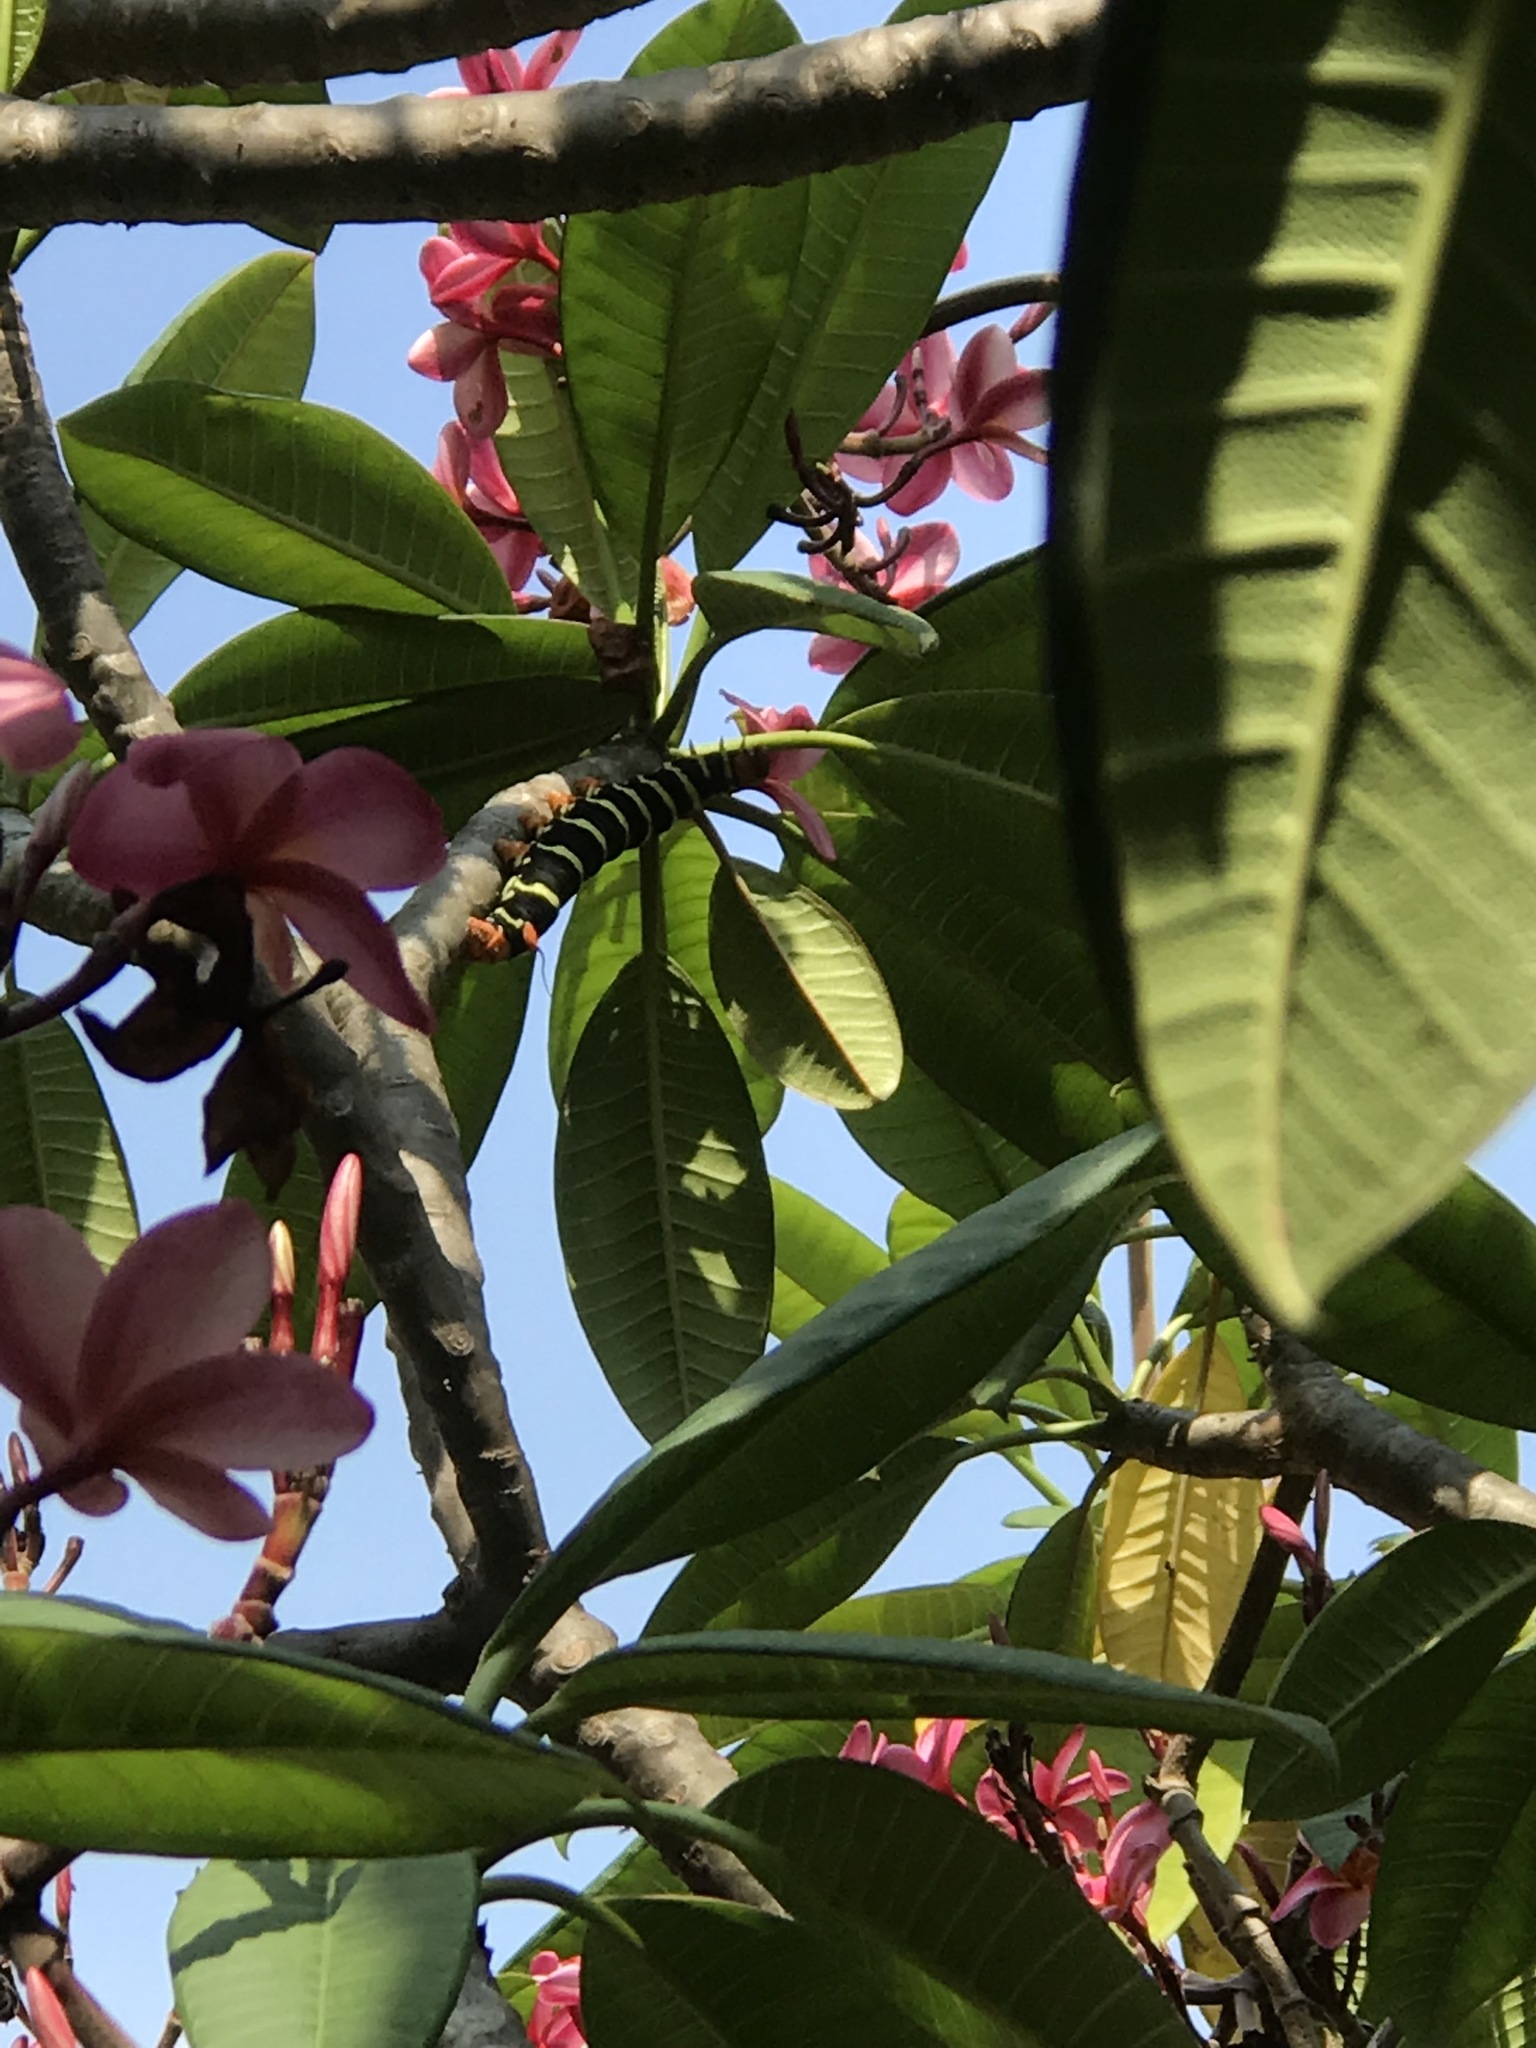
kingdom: Animalia
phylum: Arthropoda
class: Insecta
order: Lepidoptera
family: Sphingidae
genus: Pseudosphinx
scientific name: Pseudosphinx tetrio
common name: Tetrio sphinx
